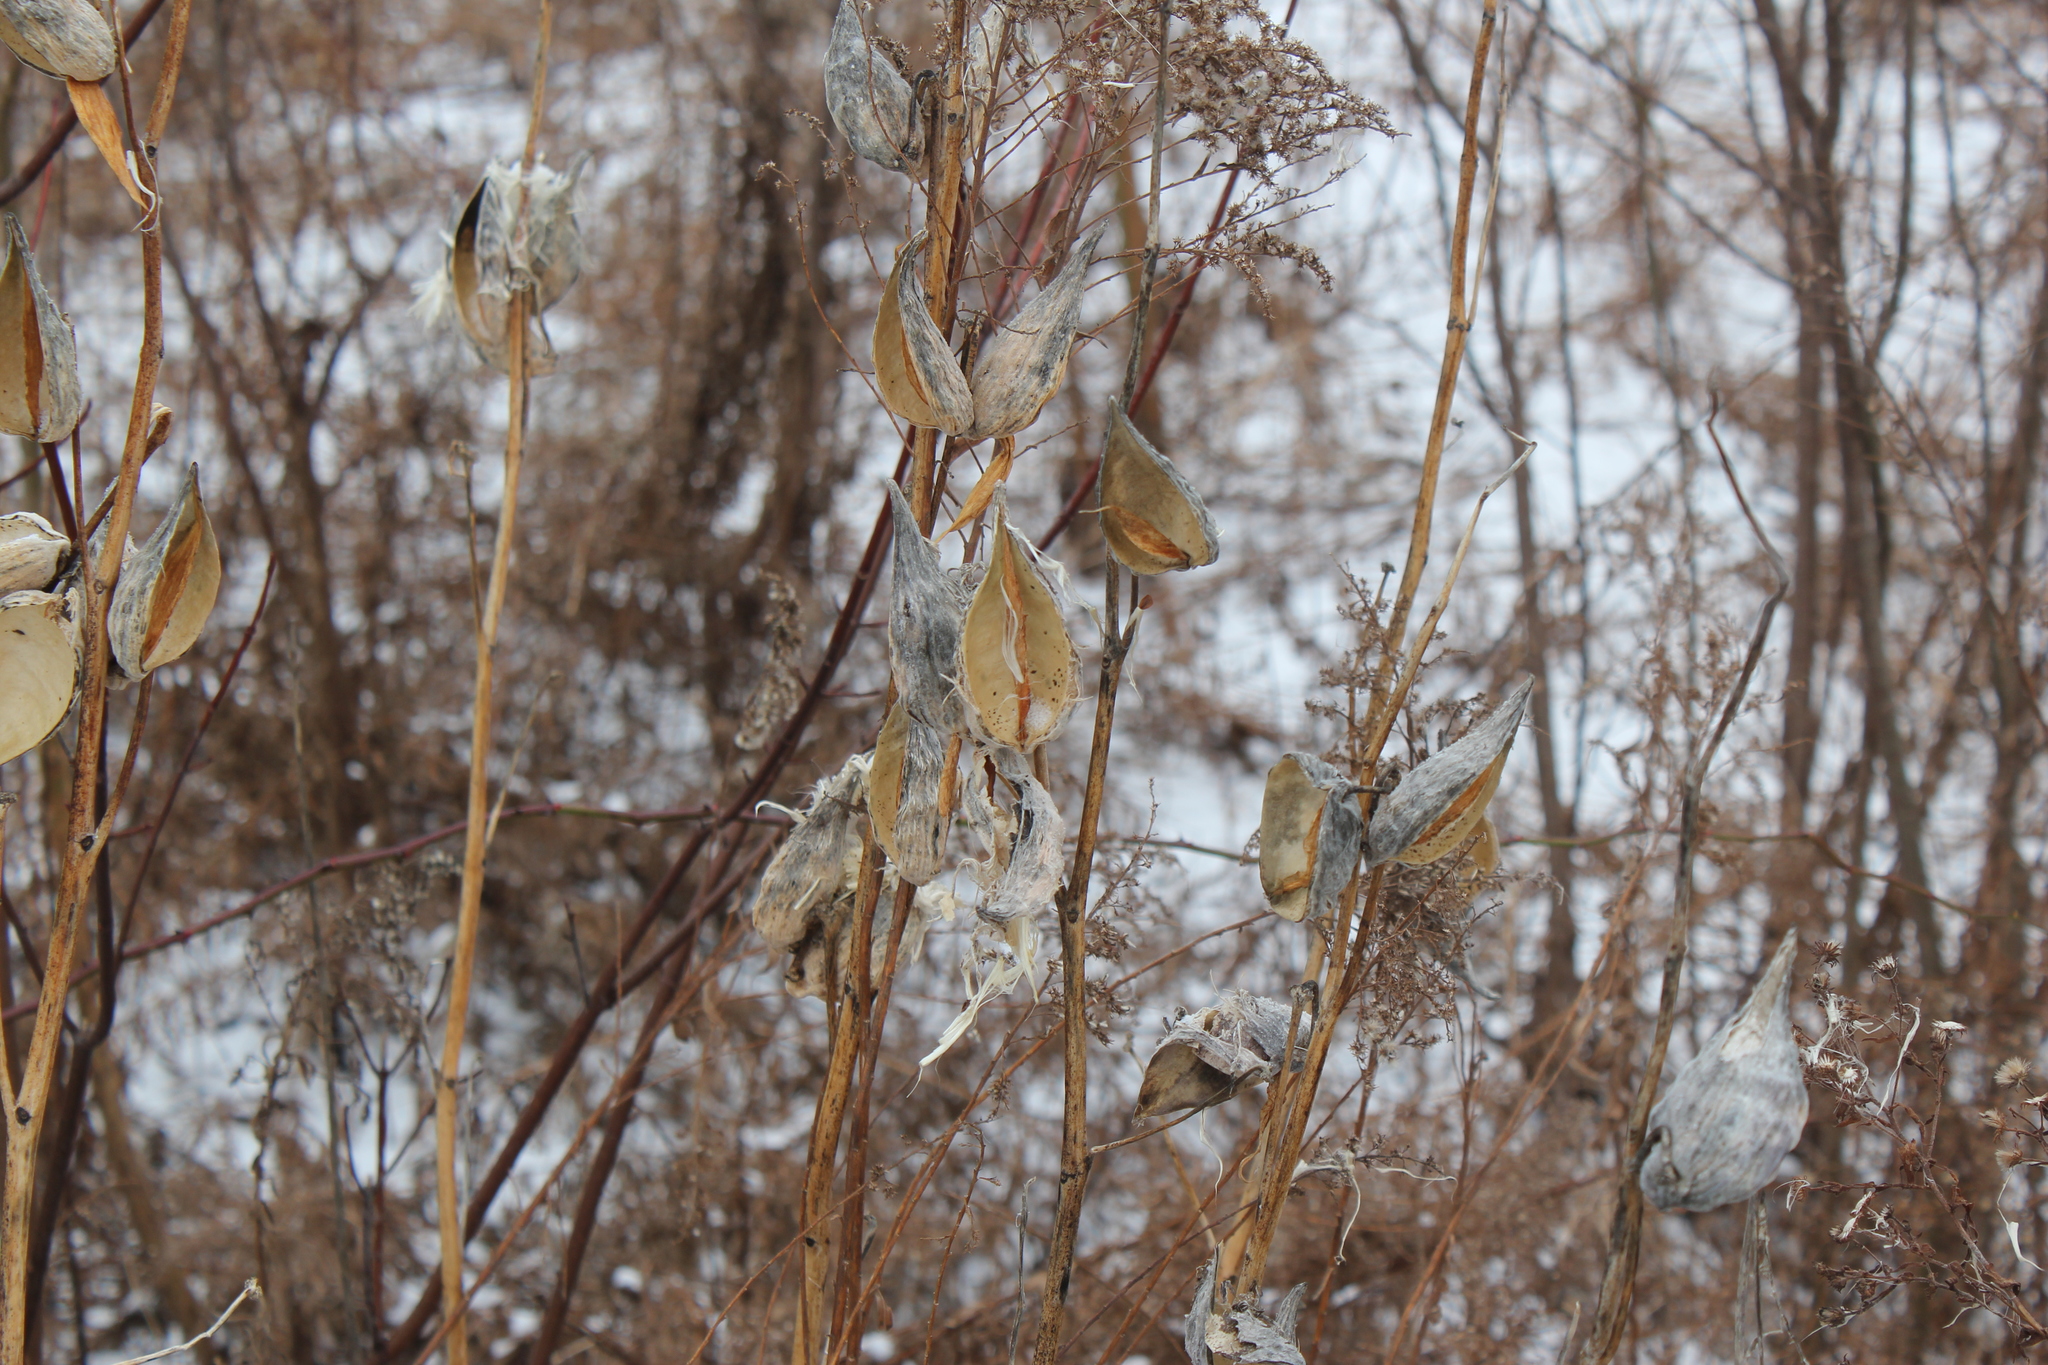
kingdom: Plantae
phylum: Tracheophyta
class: Magnoliopsida
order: Gentianales
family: Apocynaceae
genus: Asclepias
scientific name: Asclepias syriaca
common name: Common milkweed
